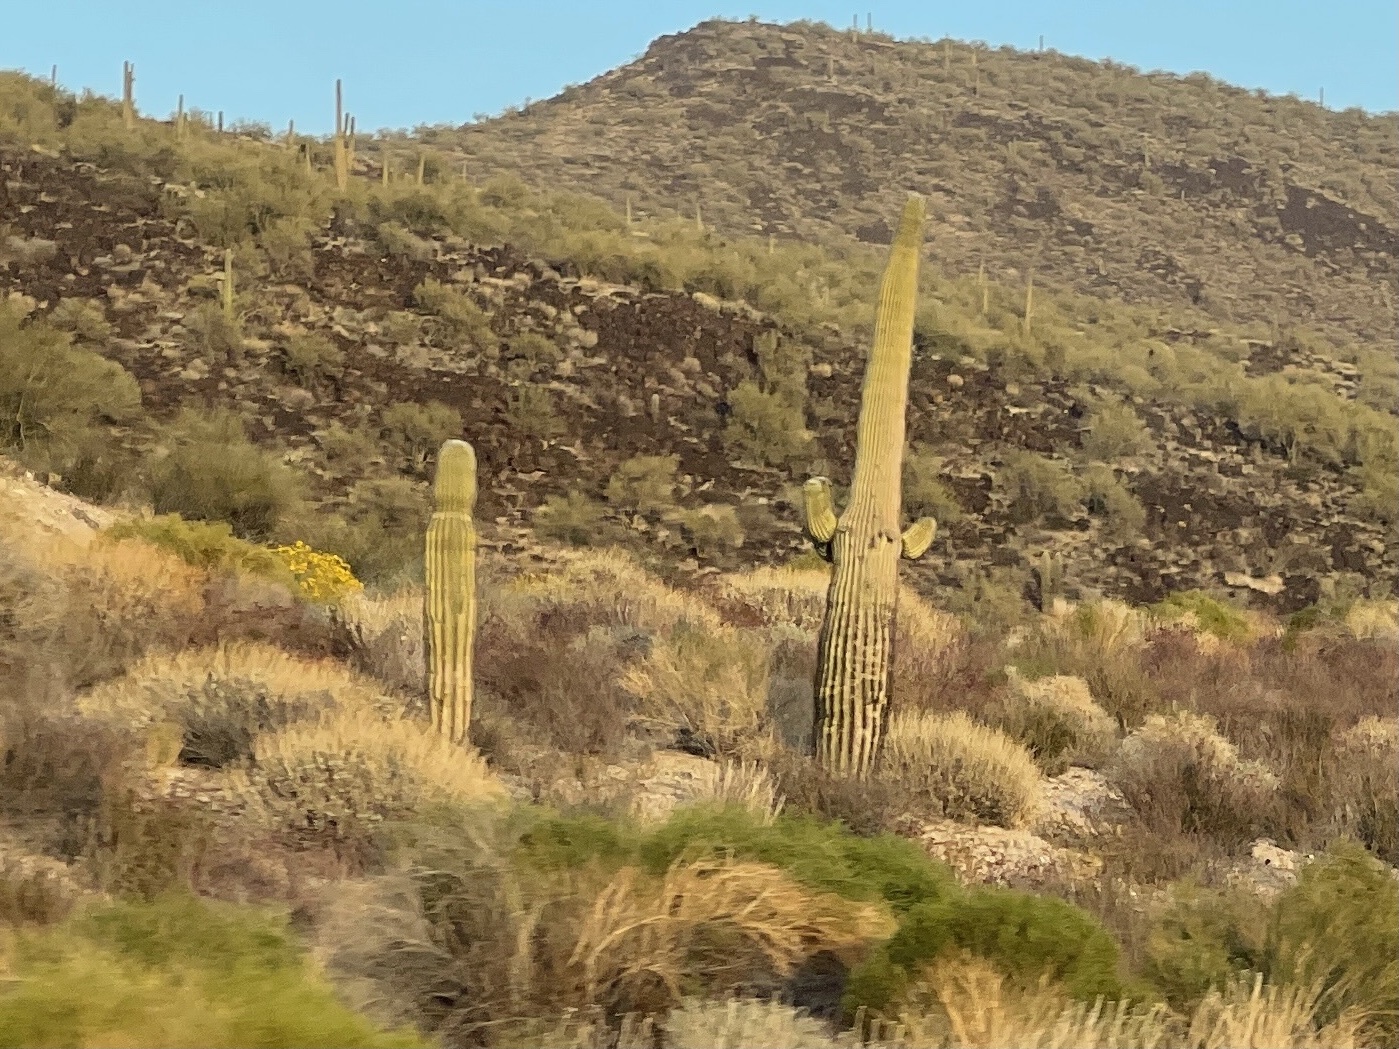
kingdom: Plantae
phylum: Tracheophyta
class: Magnoliopsida
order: Caryophyllales
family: Cactaceae
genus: Carnegiea
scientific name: Carnegiea gigantea
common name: Saguaro
